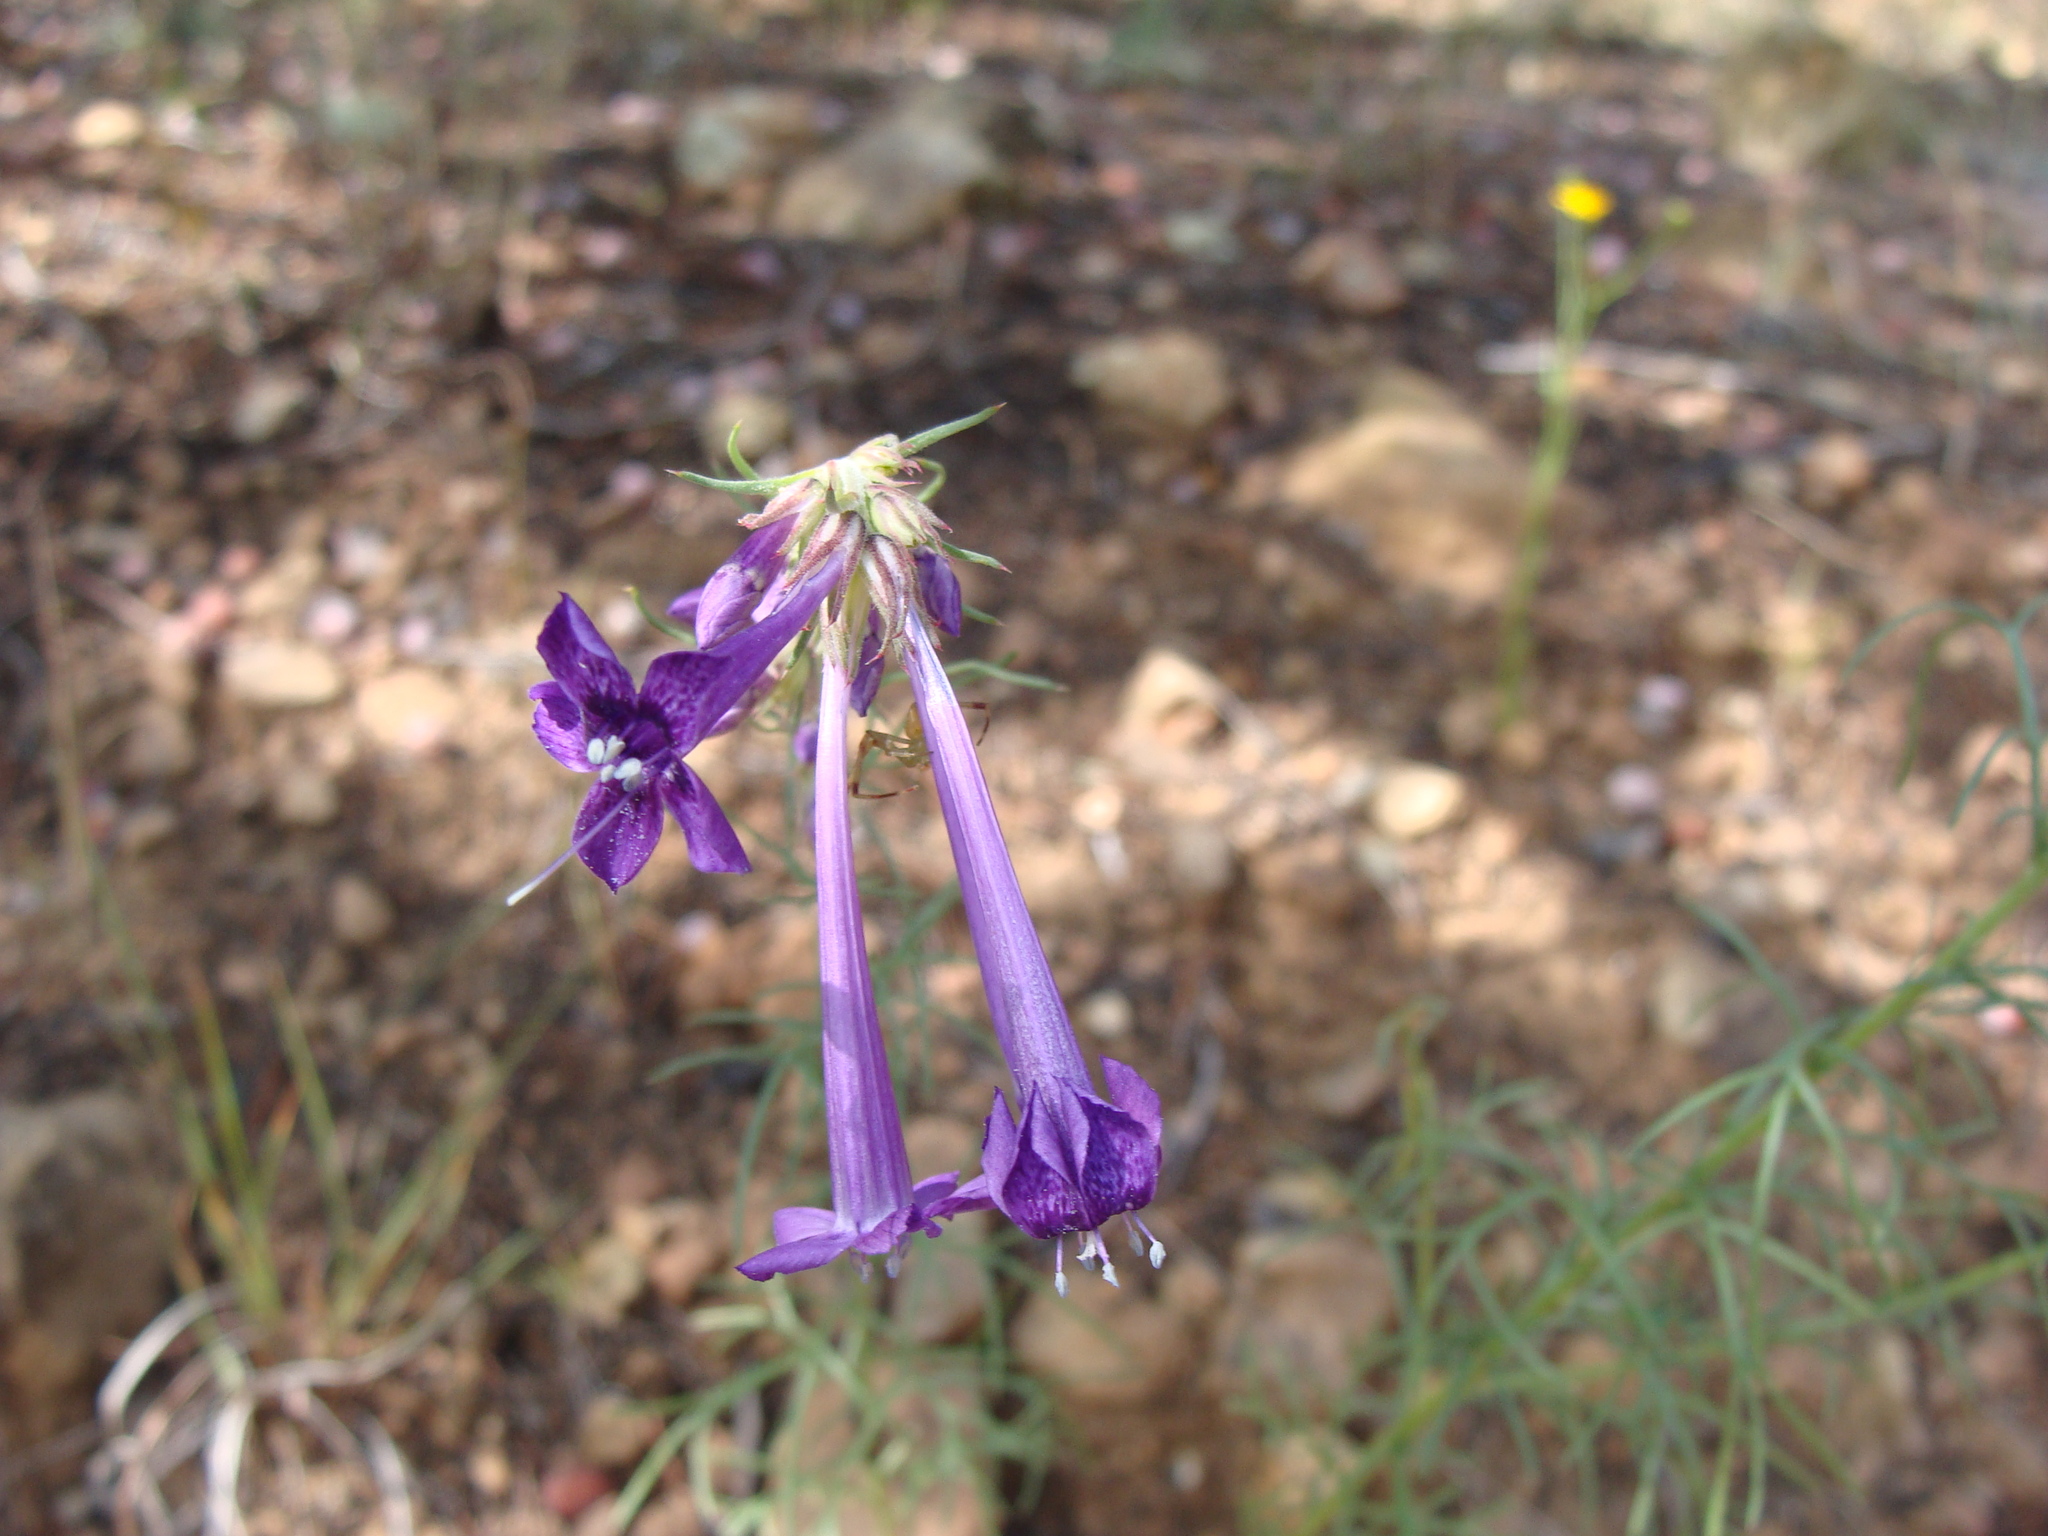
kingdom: Plantae
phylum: Tracheophyta
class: Magnoliopsida
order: Ericales
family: Polemoniaceae
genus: Ipomopsis
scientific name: Ipomopsis thurberi
